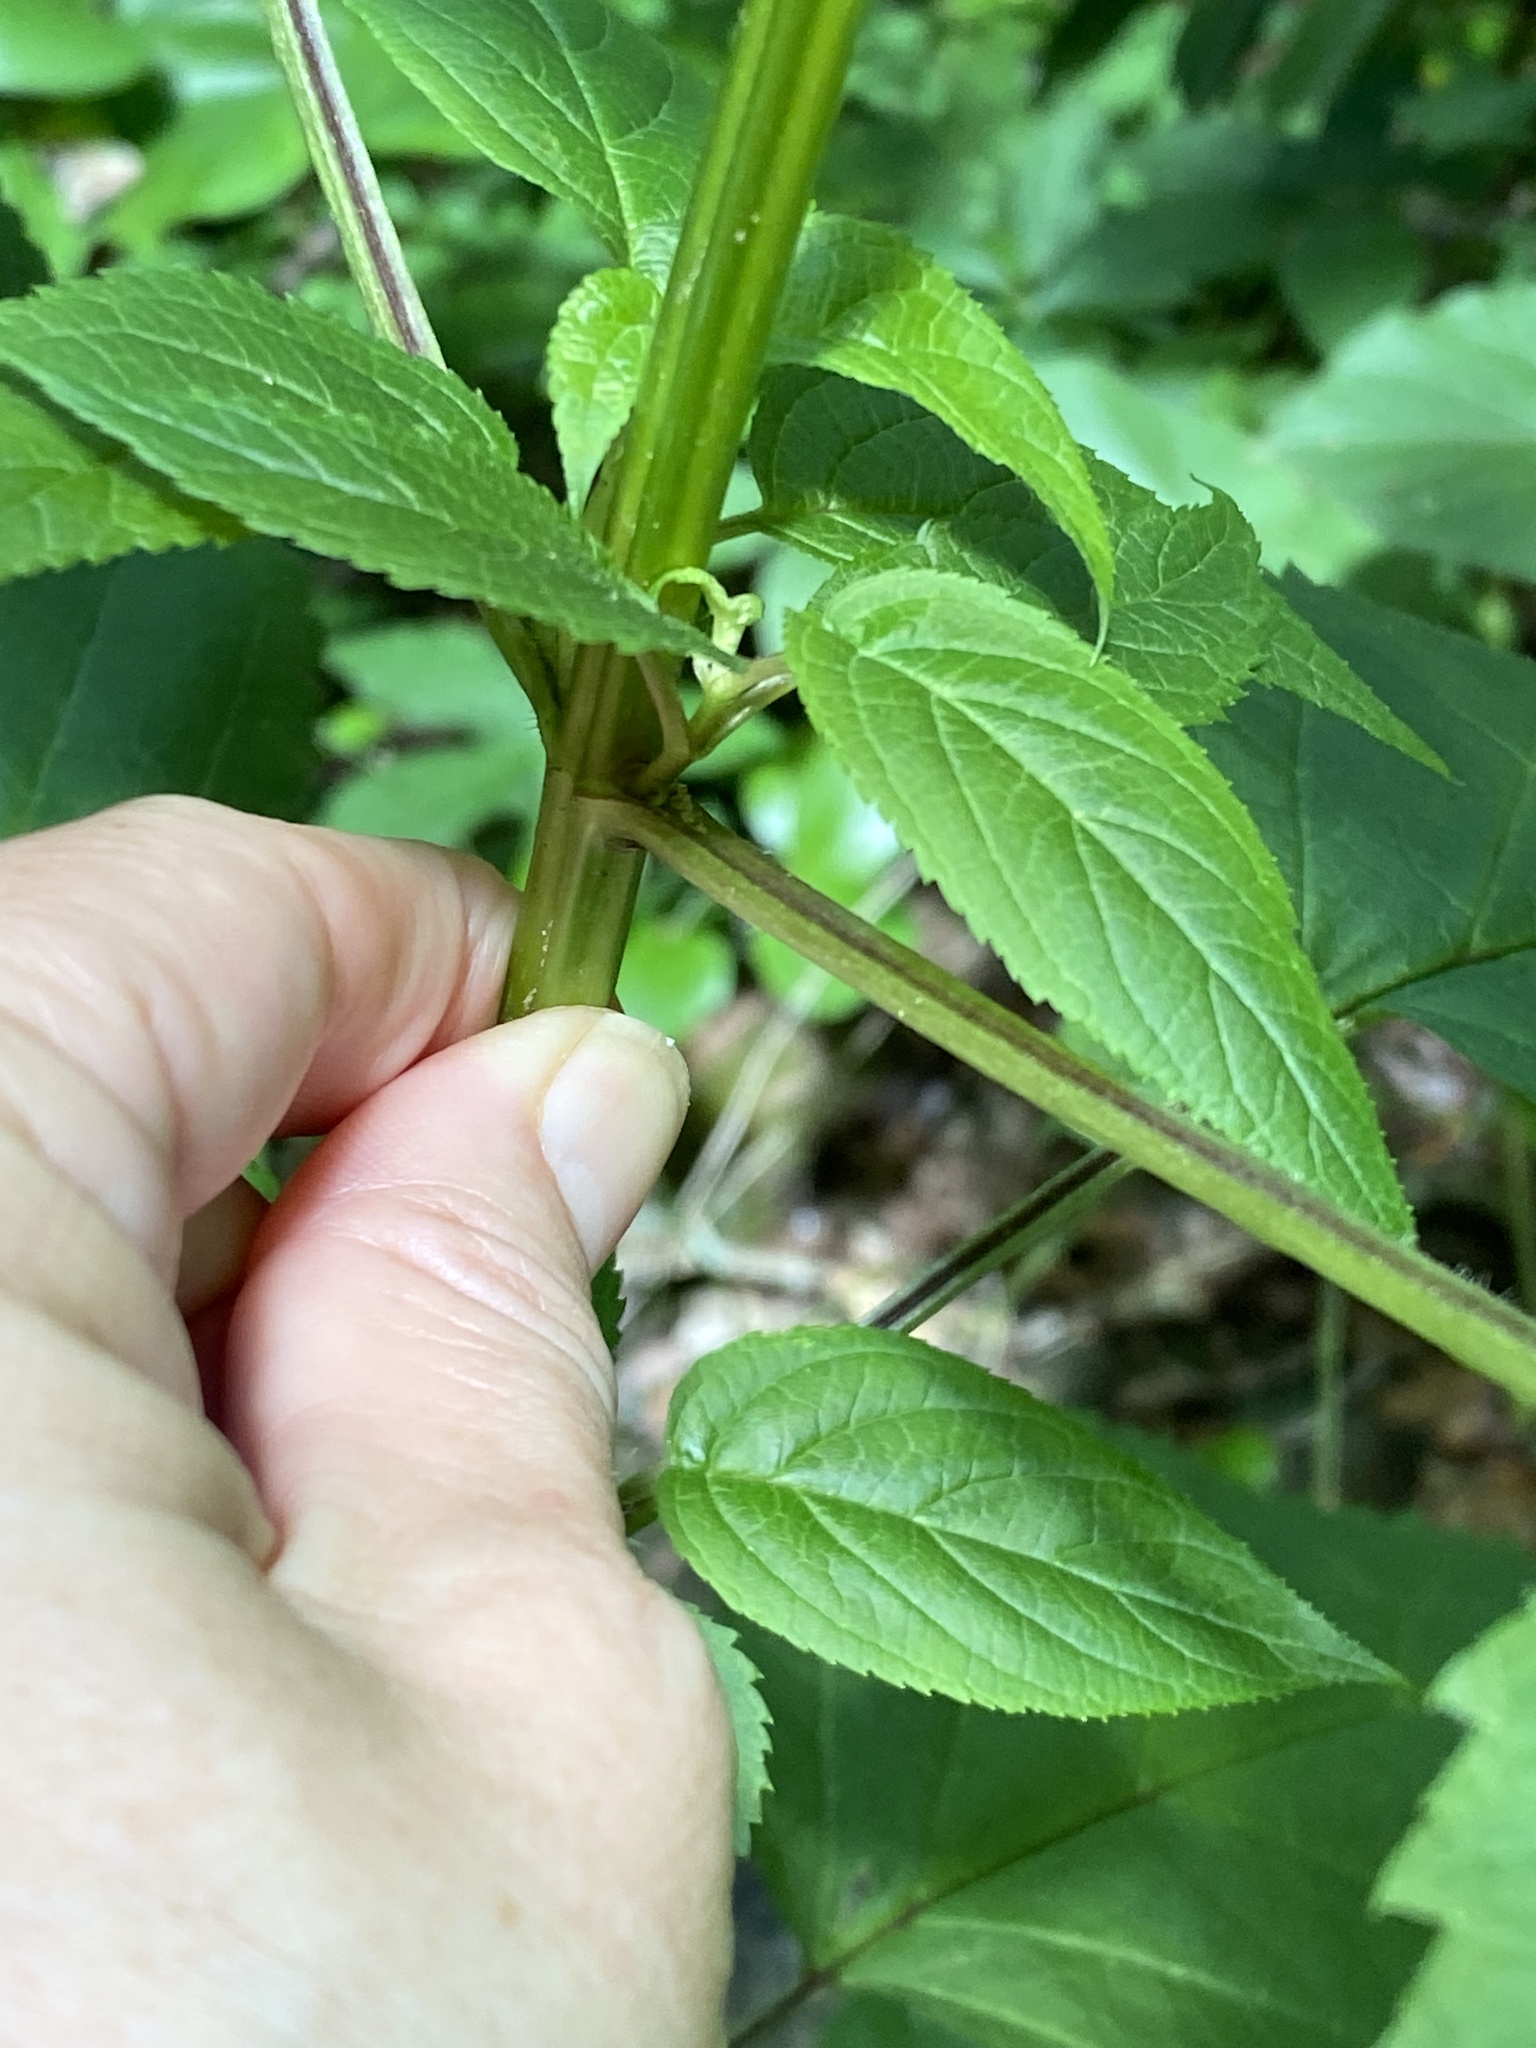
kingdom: Plantae
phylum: Tracheophyta
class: Magnoliopsida
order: Lamiales
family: Scrophulariaceae
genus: Scrophularia
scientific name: Scrophularia marilandica
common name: Eastern figwort
